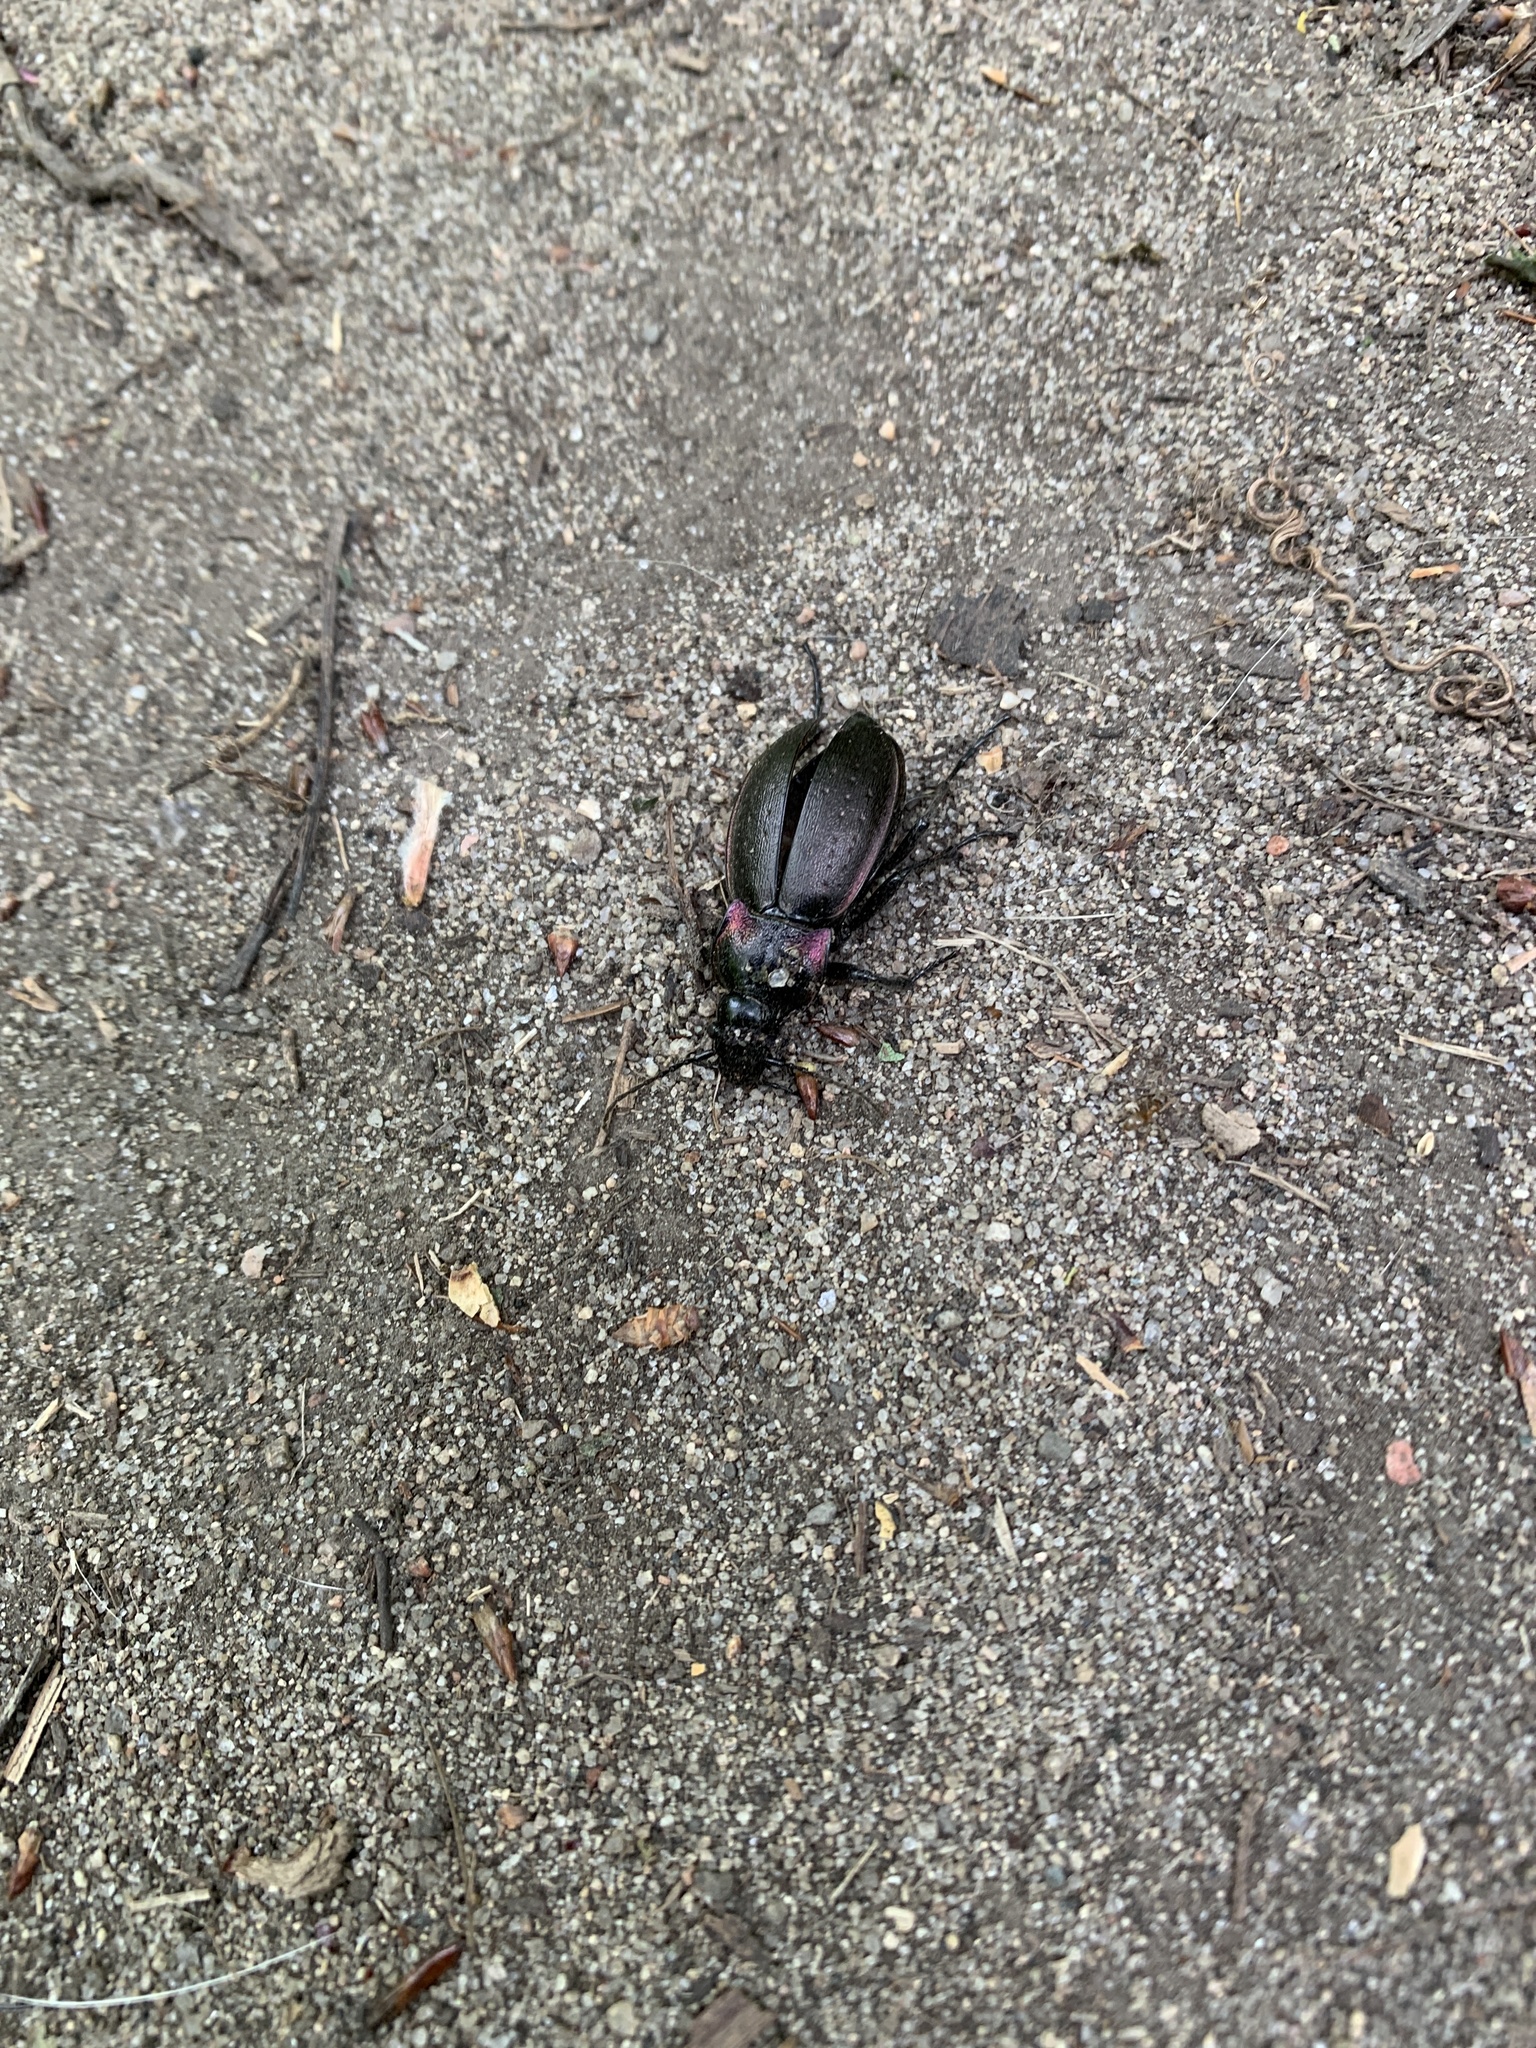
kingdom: Animalia
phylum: Arthropoda
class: Insecta
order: Coleoptera
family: Carabidae
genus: Carabus
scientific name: Carabus nemoralis
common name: European ground beetle
